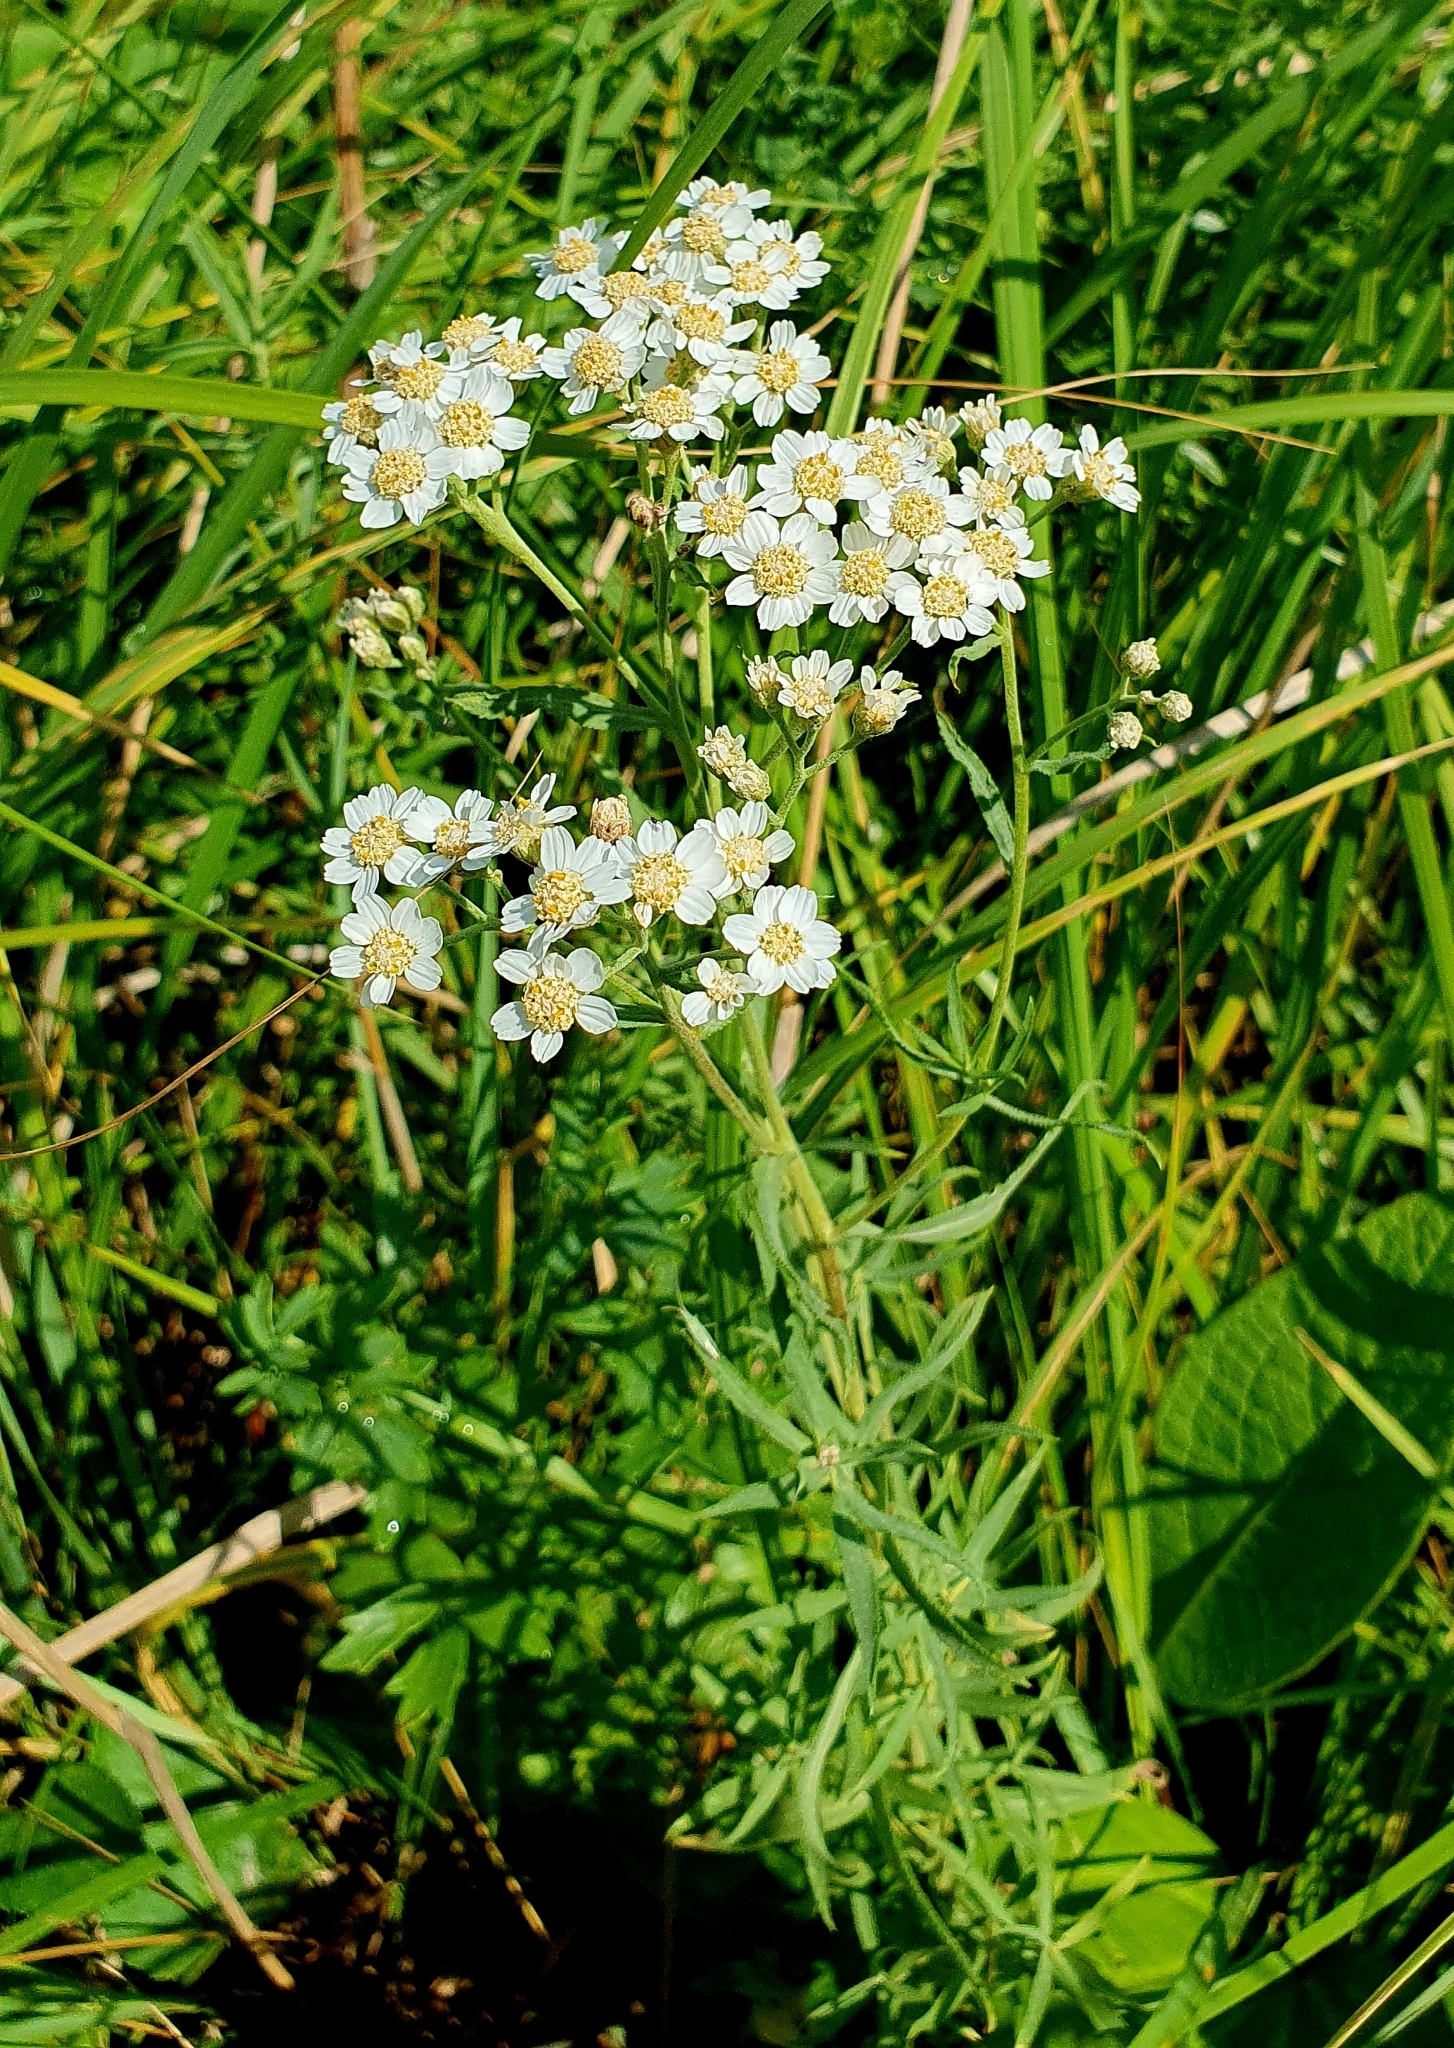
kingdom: Plantae
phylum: Tracheophyta
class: Magnoliopsida
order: Asterales
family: Asteraceae
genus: Achillea
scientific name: Achillea salicifolia
